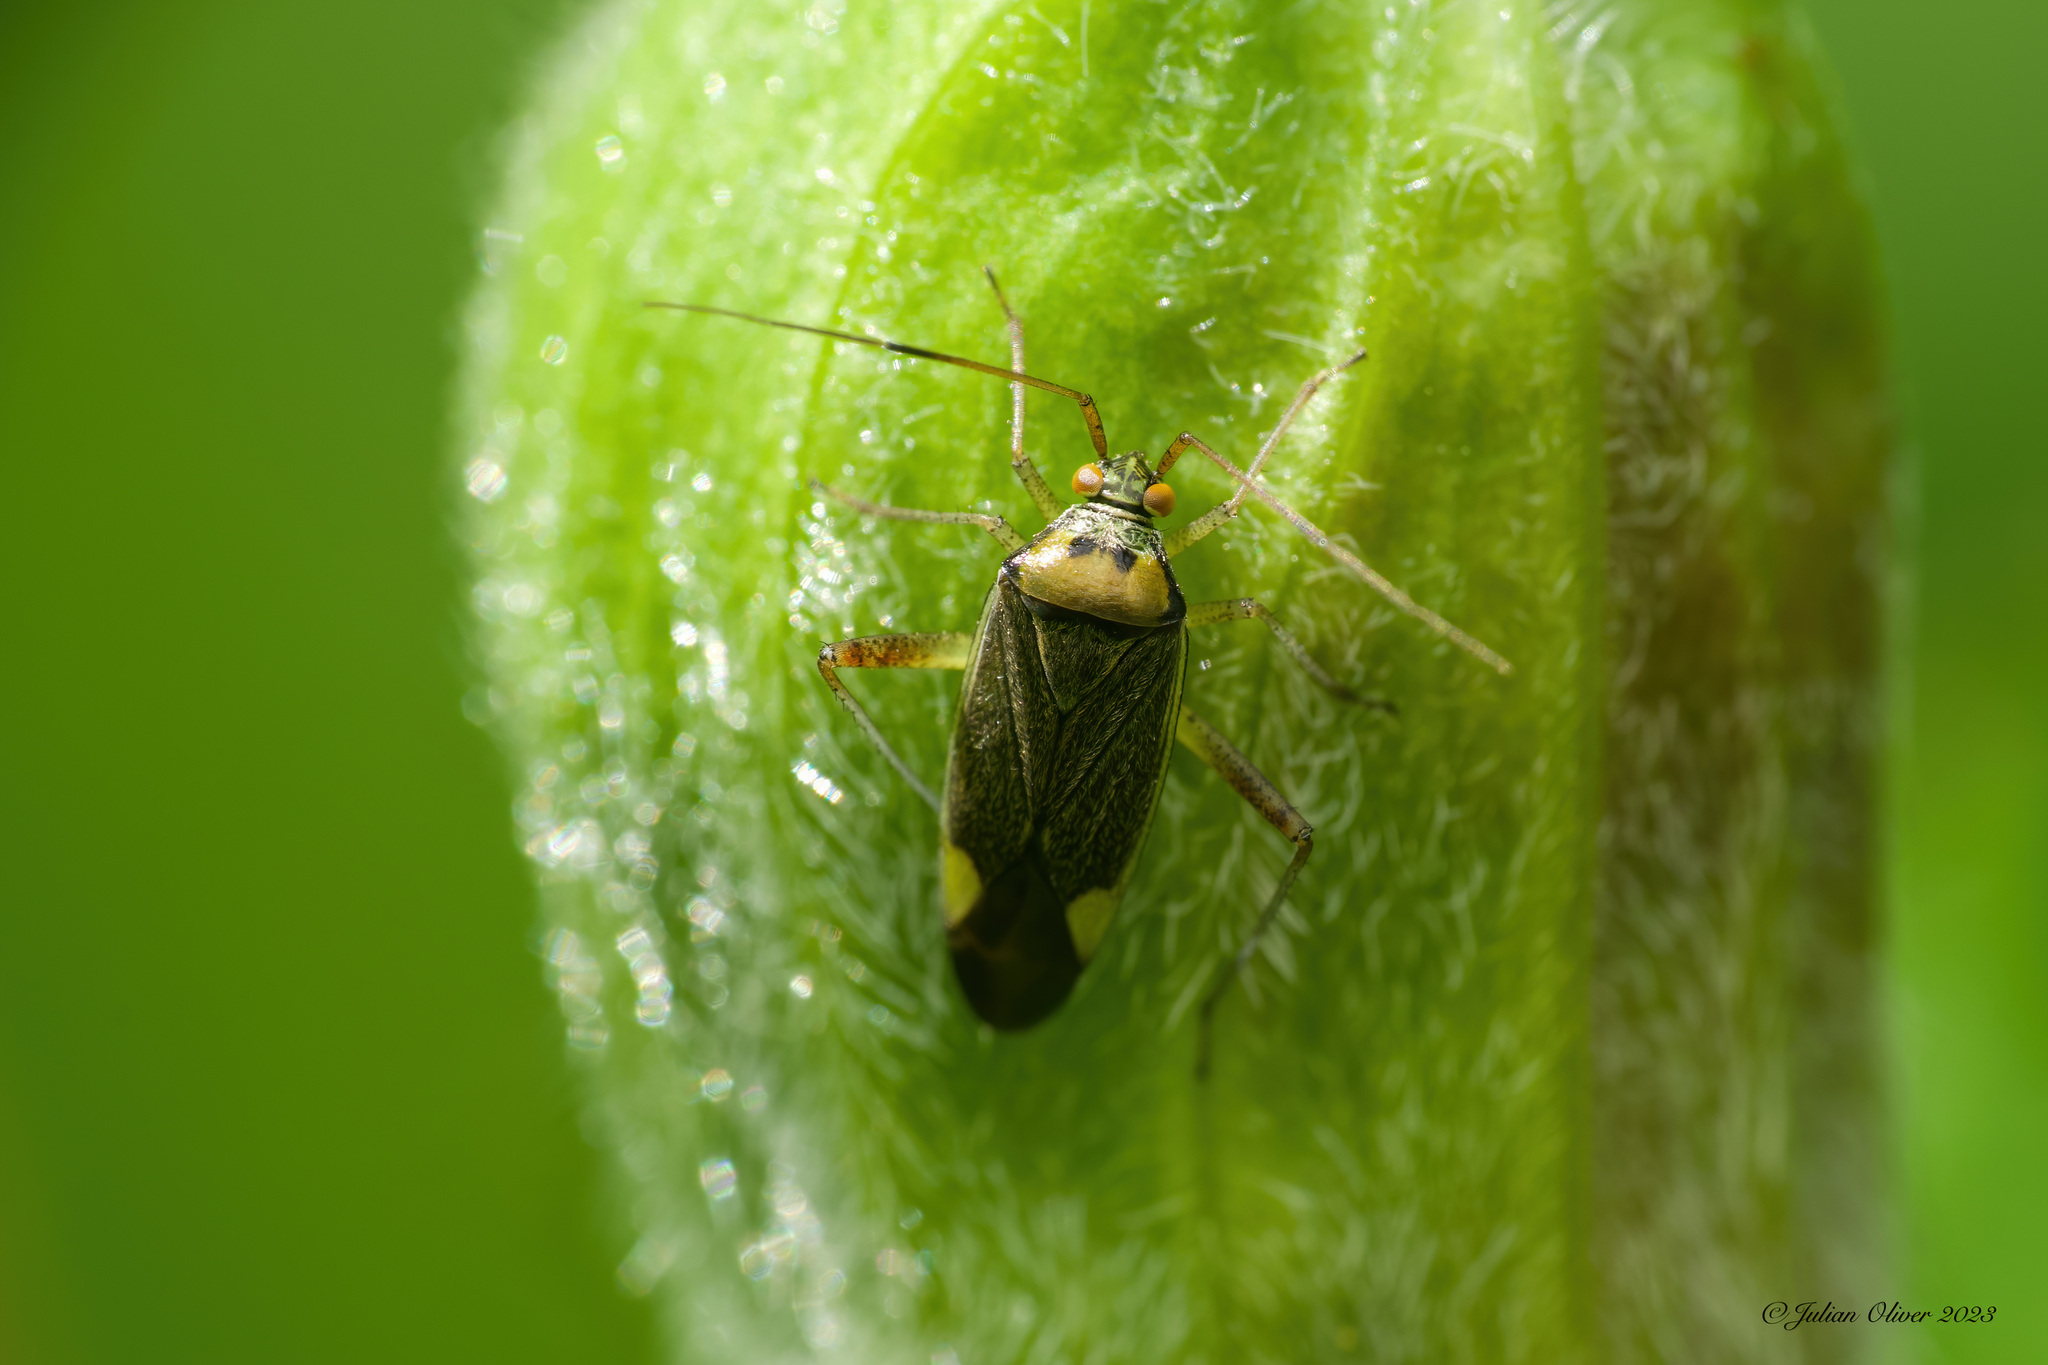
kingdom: Animalia
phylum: Arthropoda
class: Insecta
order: Hemiptera
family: Miridae
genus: Closterotomus
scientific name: Closterotomus trivialis
